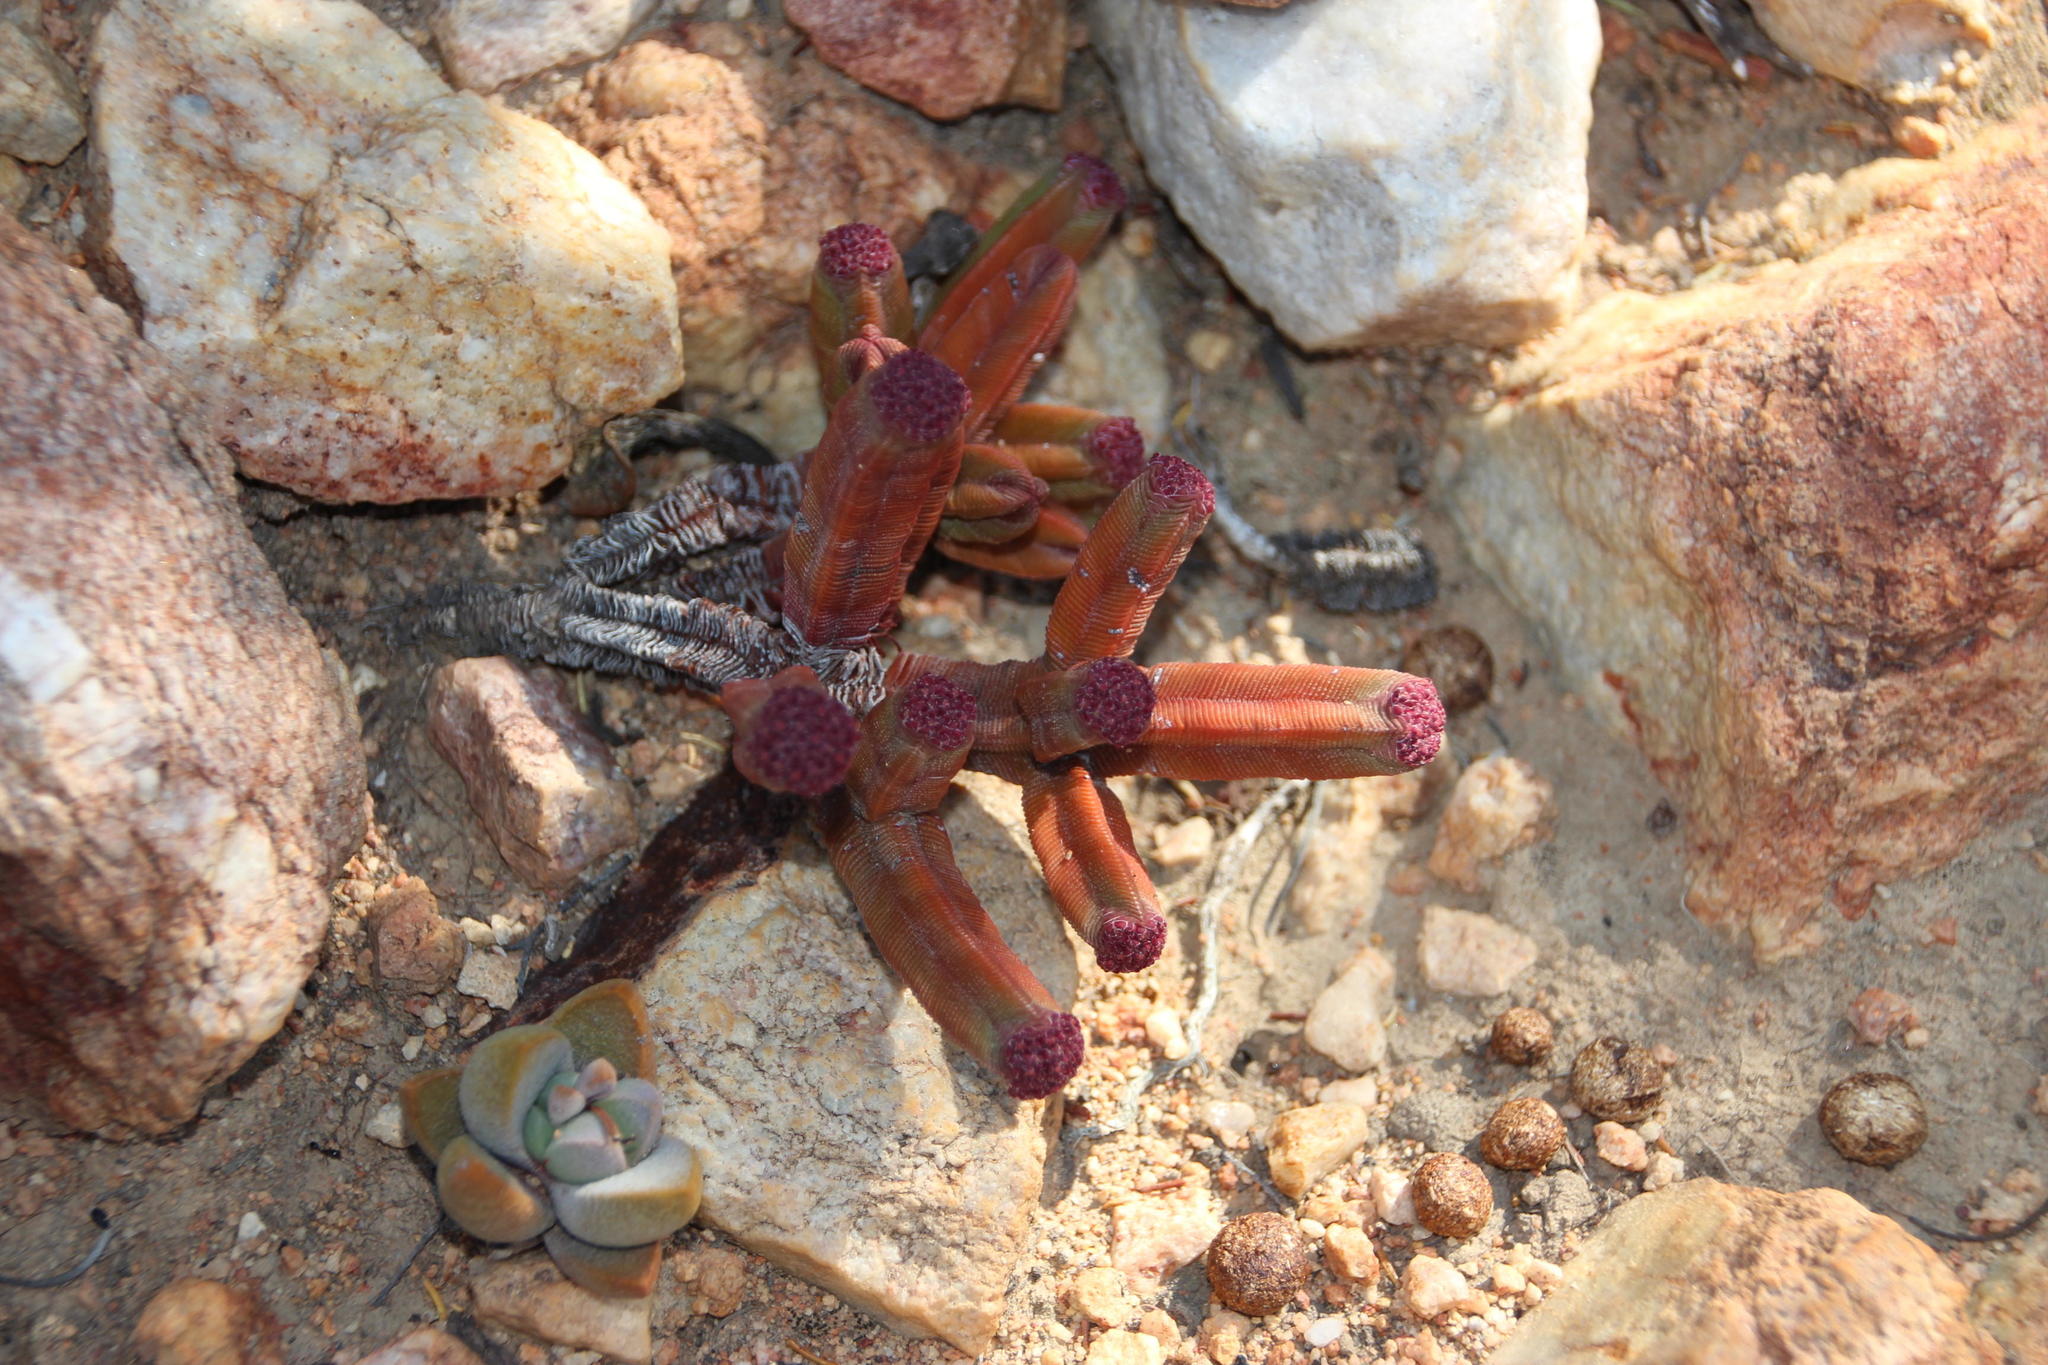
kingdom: Plantae
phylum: Tracheophyta
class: Magnoliopsida
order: Saxifragales
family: Crassulaceae
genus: Crassula
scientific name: Crassula pyramidalis
